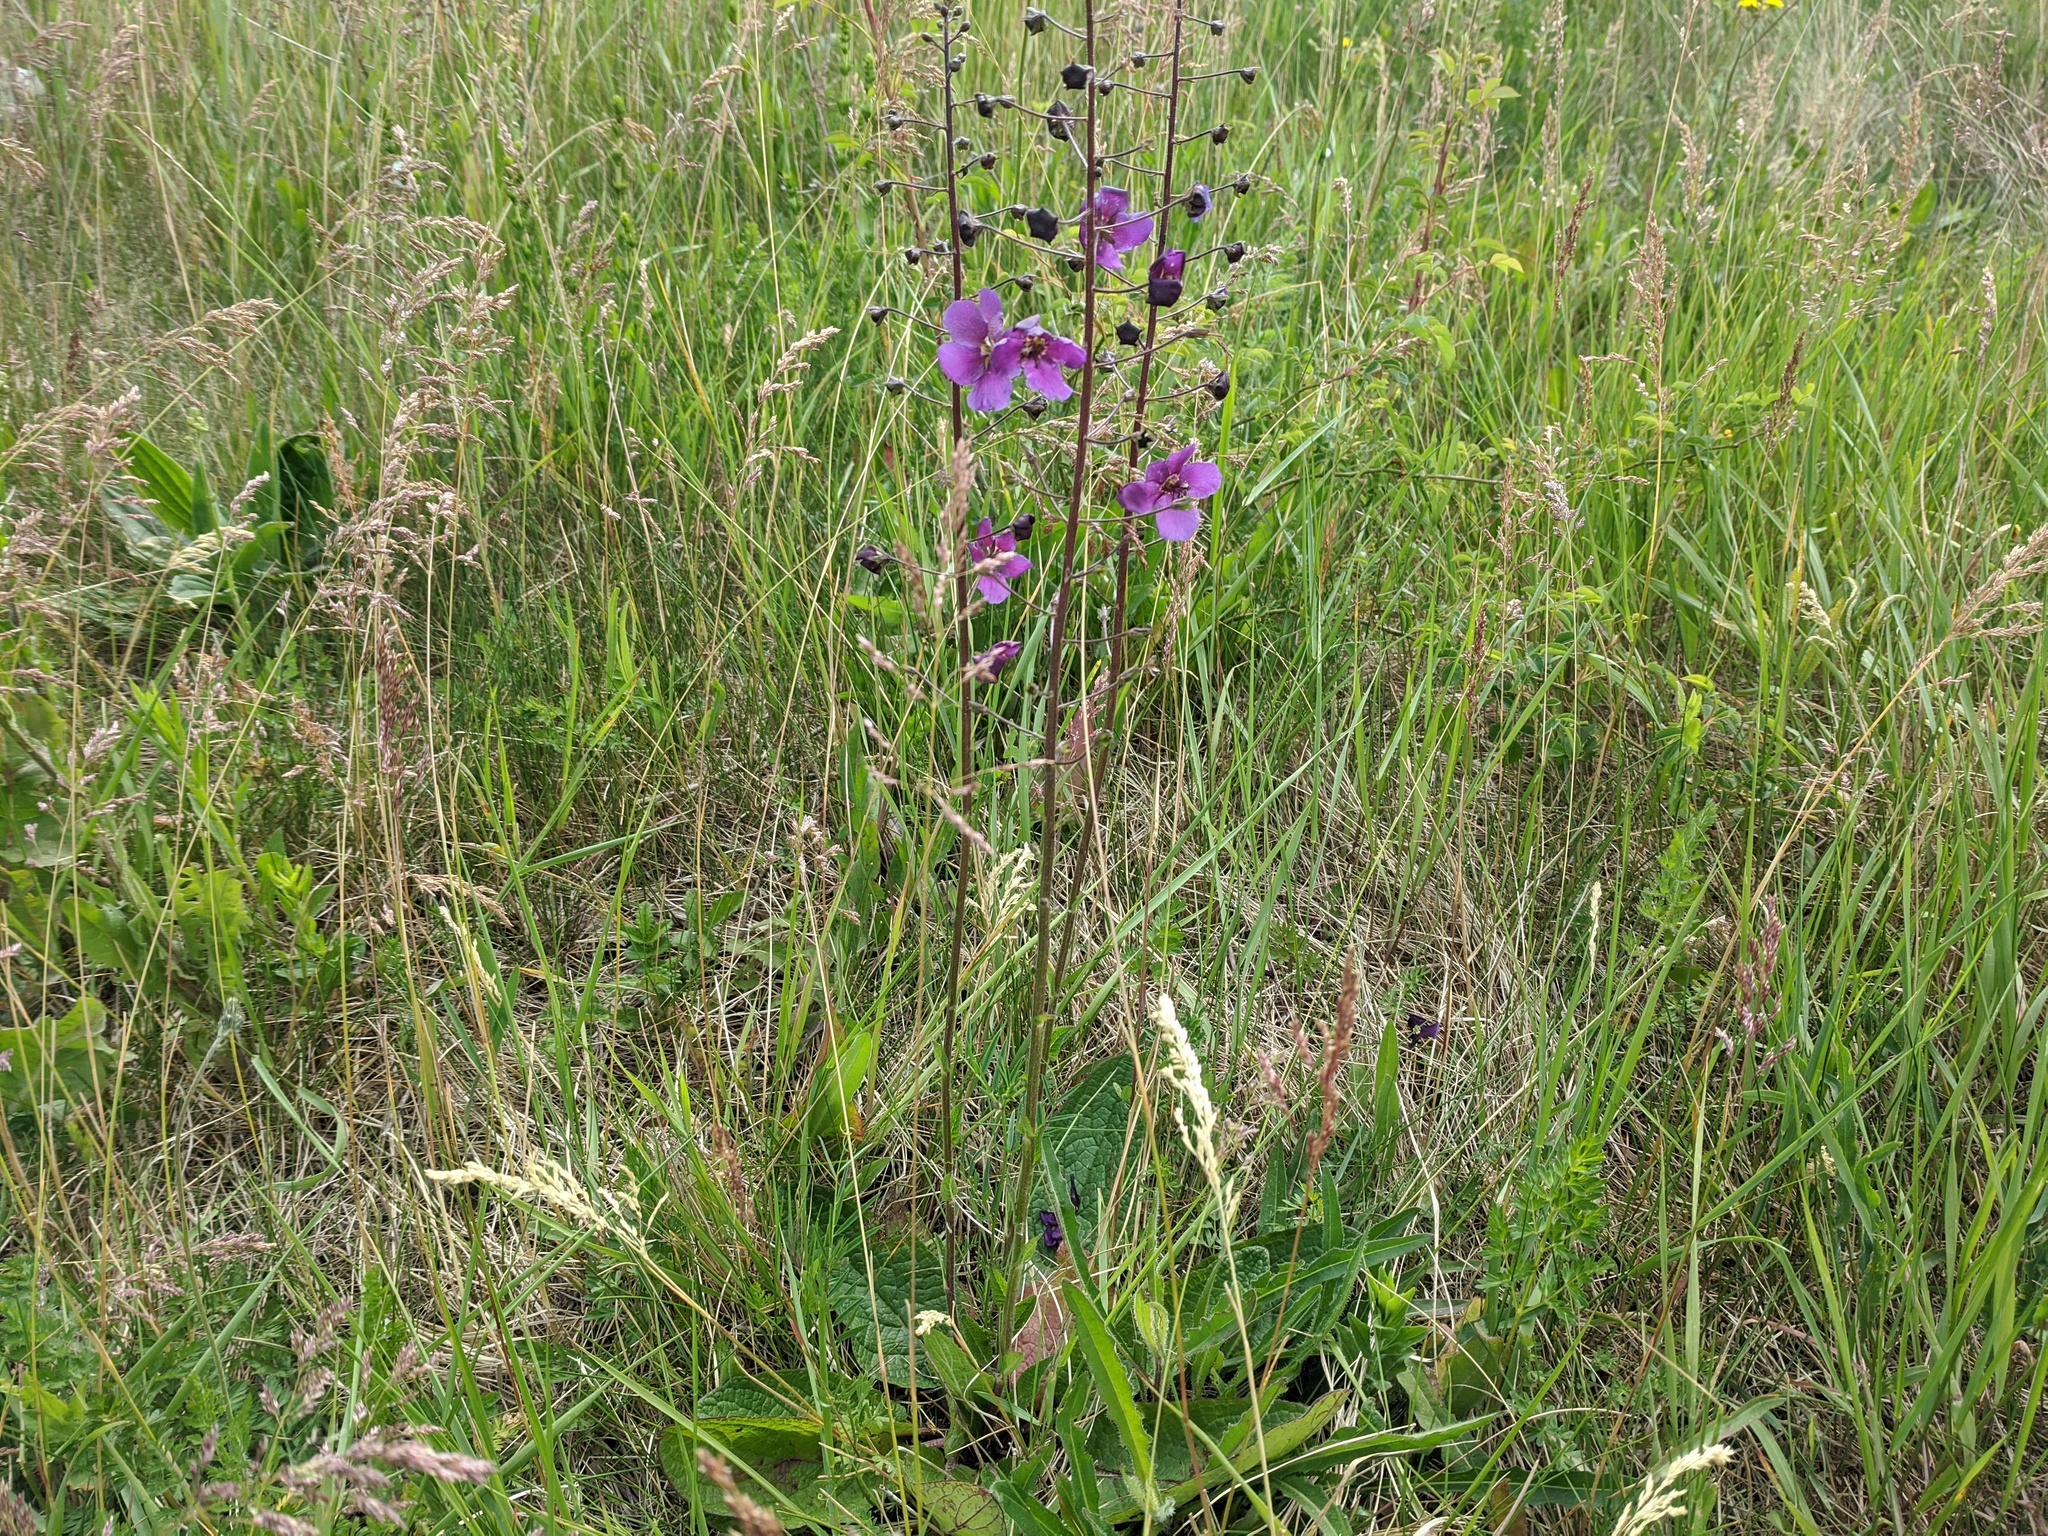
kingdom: Plantae
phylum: Tracheophyta
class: Magnoliopsida
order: Lamiales
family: Scrophulariaceae
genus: Verbascum
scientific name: Verbascum phoeniceum
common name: Purple mullein
